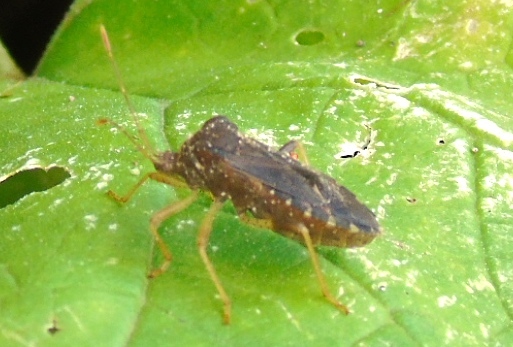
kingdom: Animalia
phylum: Arthropoda
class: Insecta
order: Hemiptera
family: Coreidae
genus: Anasa
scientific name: Anasa scorbutica
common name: Squash bug
